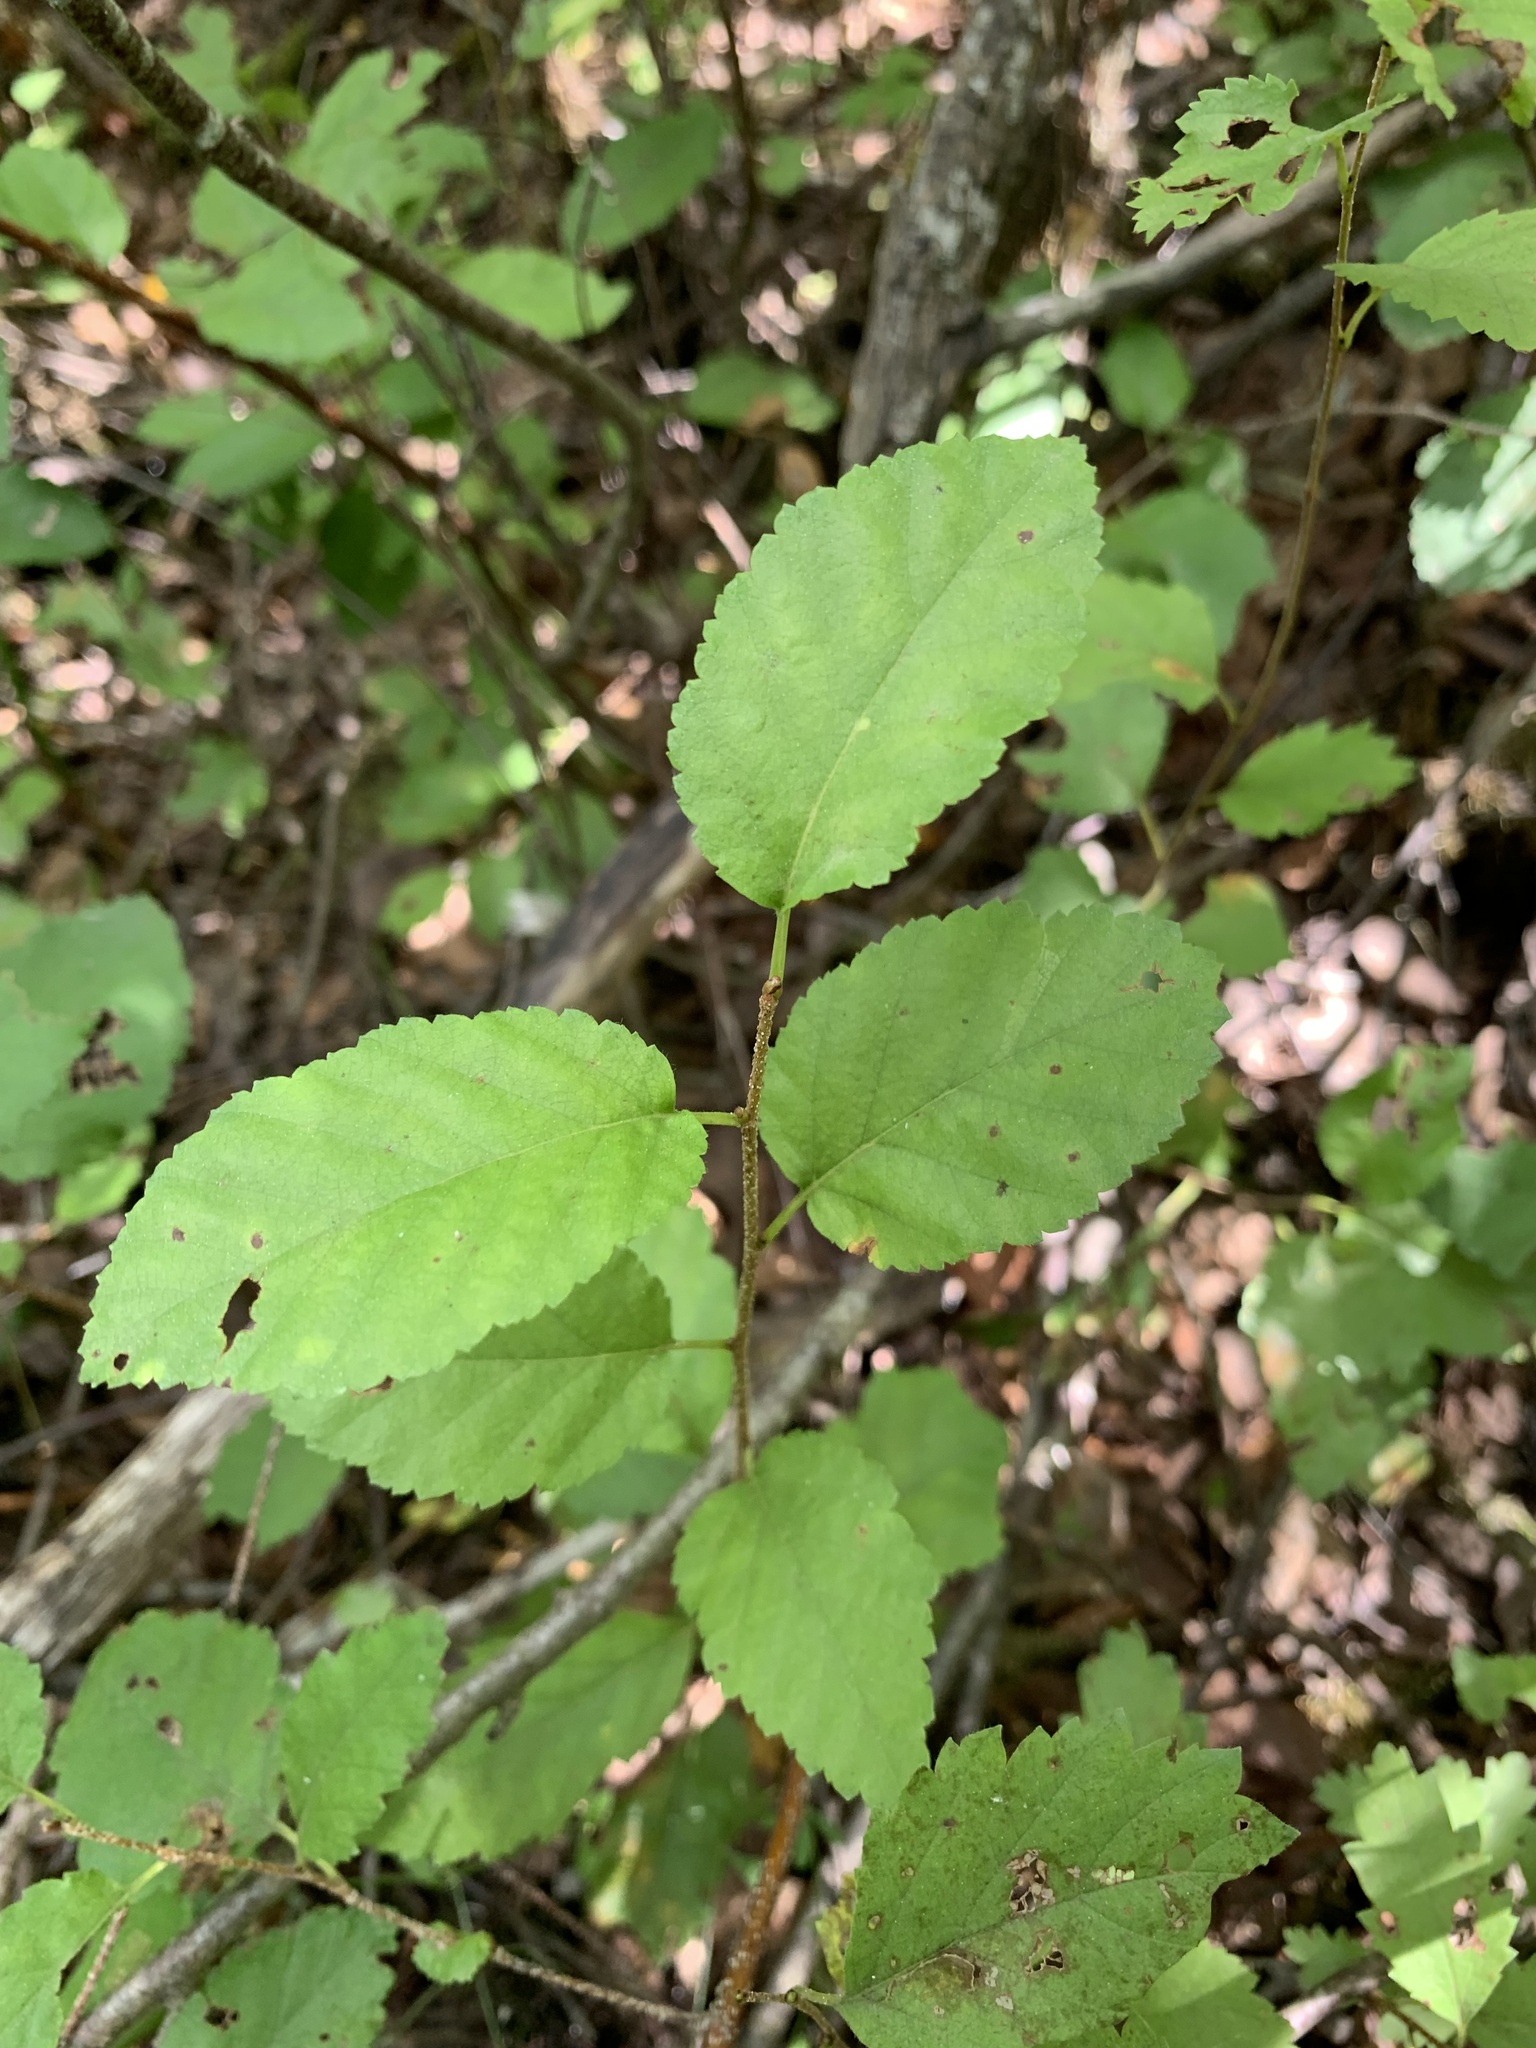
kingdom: Plantae
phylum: Tracheophyta
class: Magnoliopsida
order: Fagales
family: Betulaceae
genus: Betula
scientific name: Betula humilis
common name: Shrubby birch
